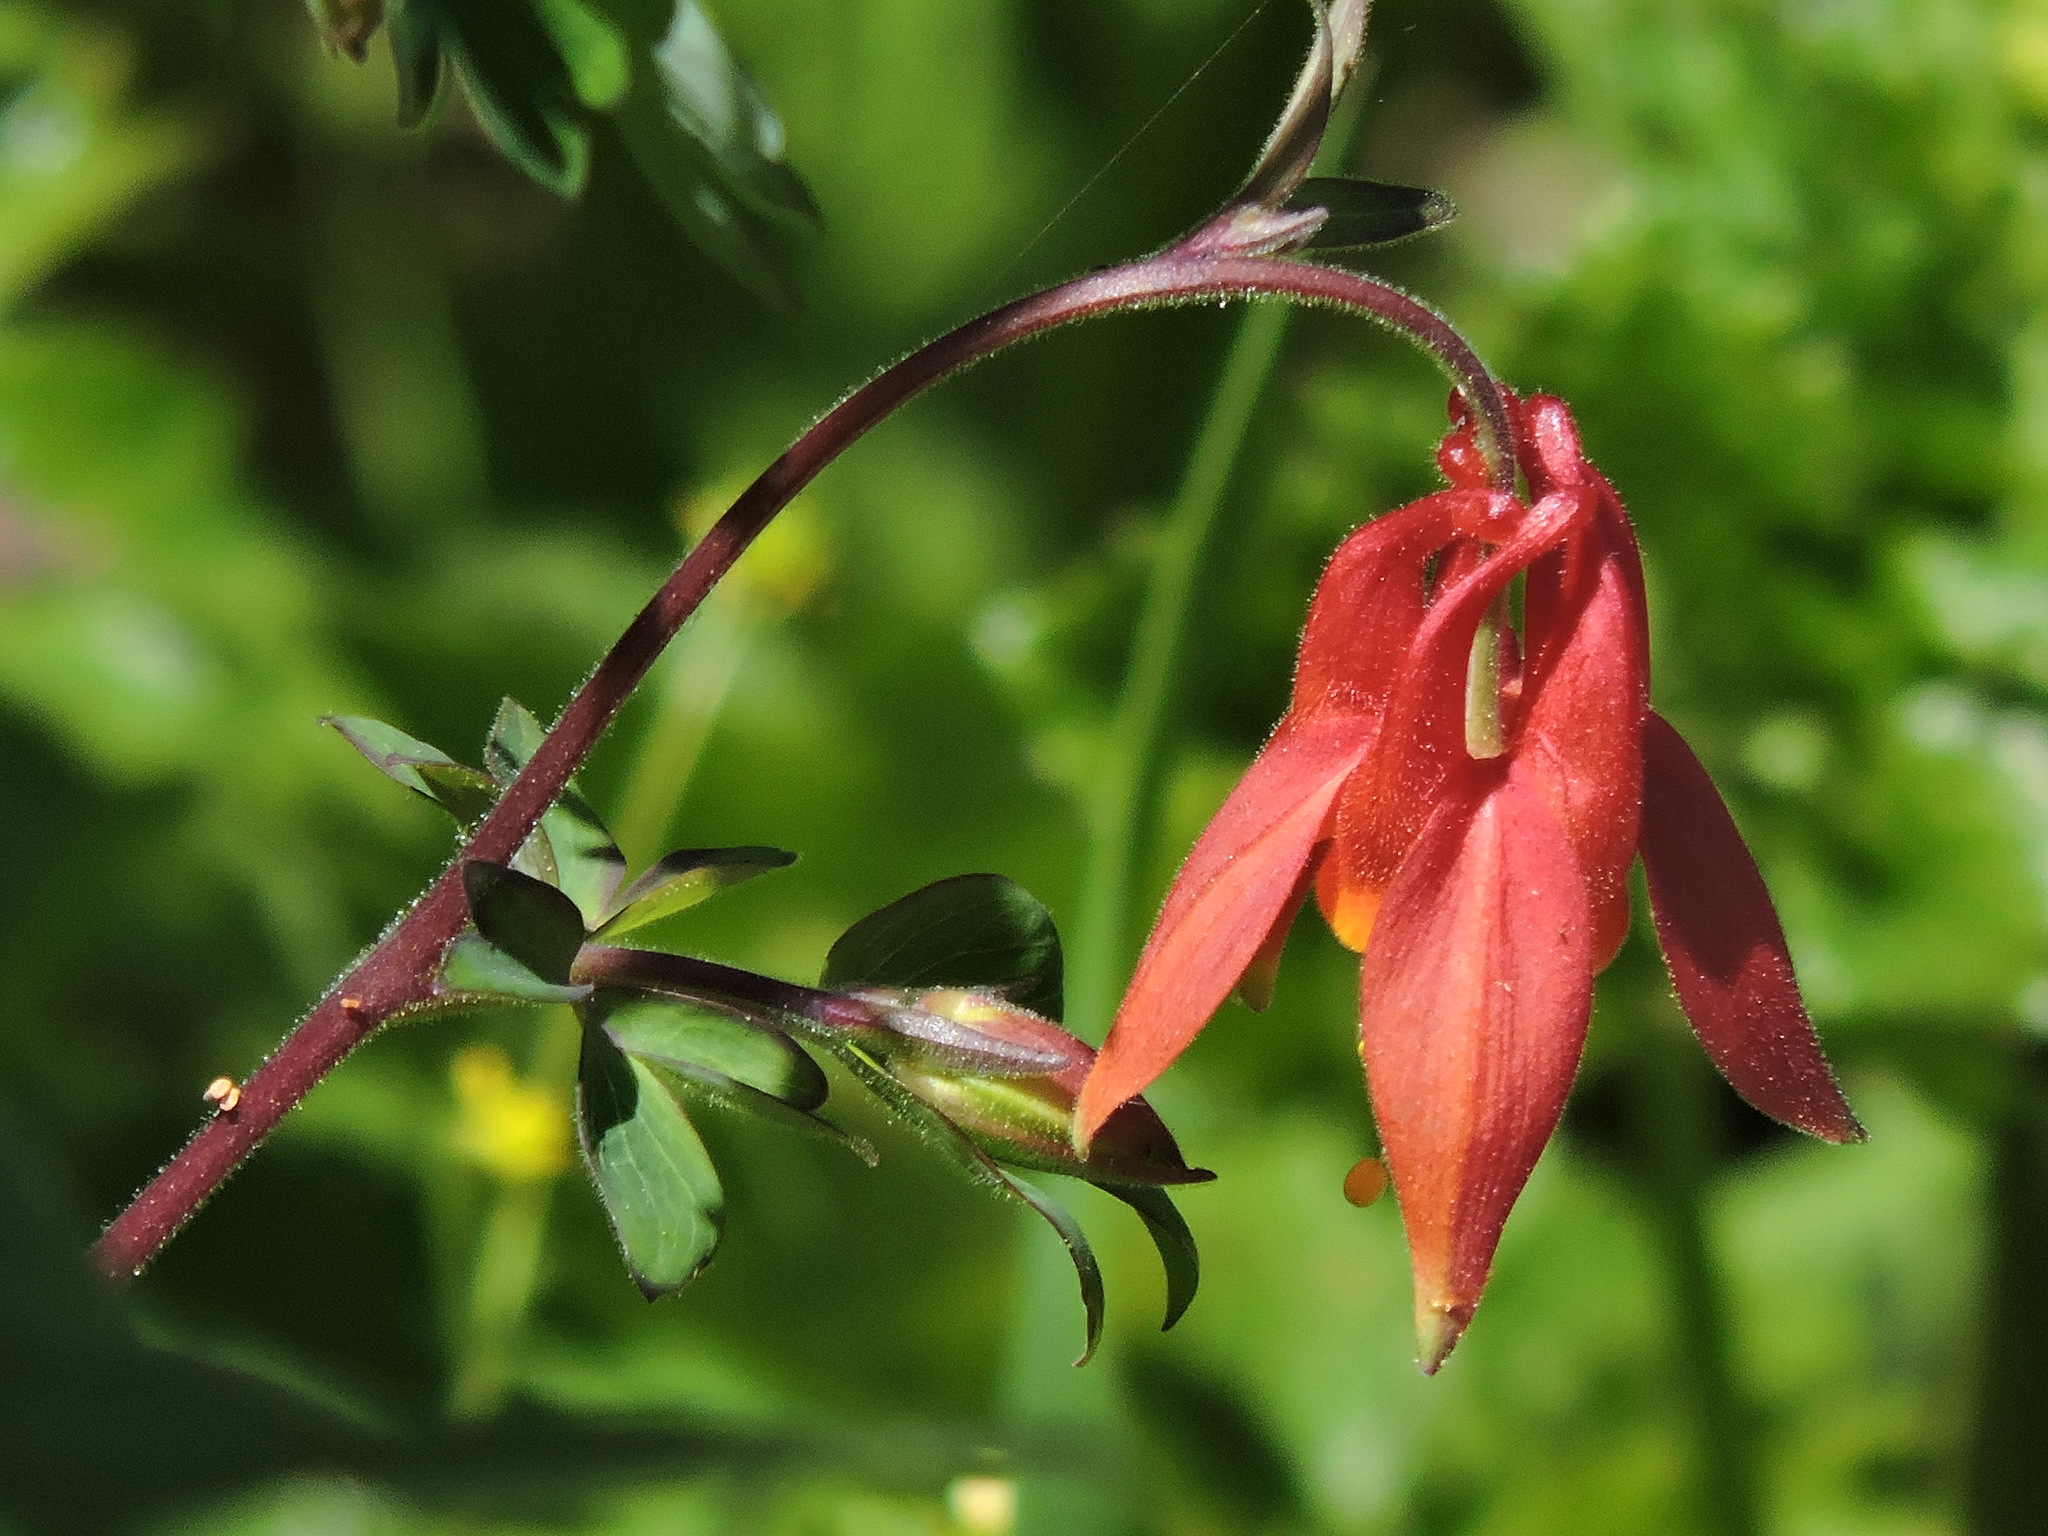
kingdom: Plantae
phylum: Tracheophyta
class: Magnoliopsida
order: Ranunculales
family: Ranunculaceae
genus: Aquilegia
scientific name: Aquilegia formosa
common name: Sitka columbine
